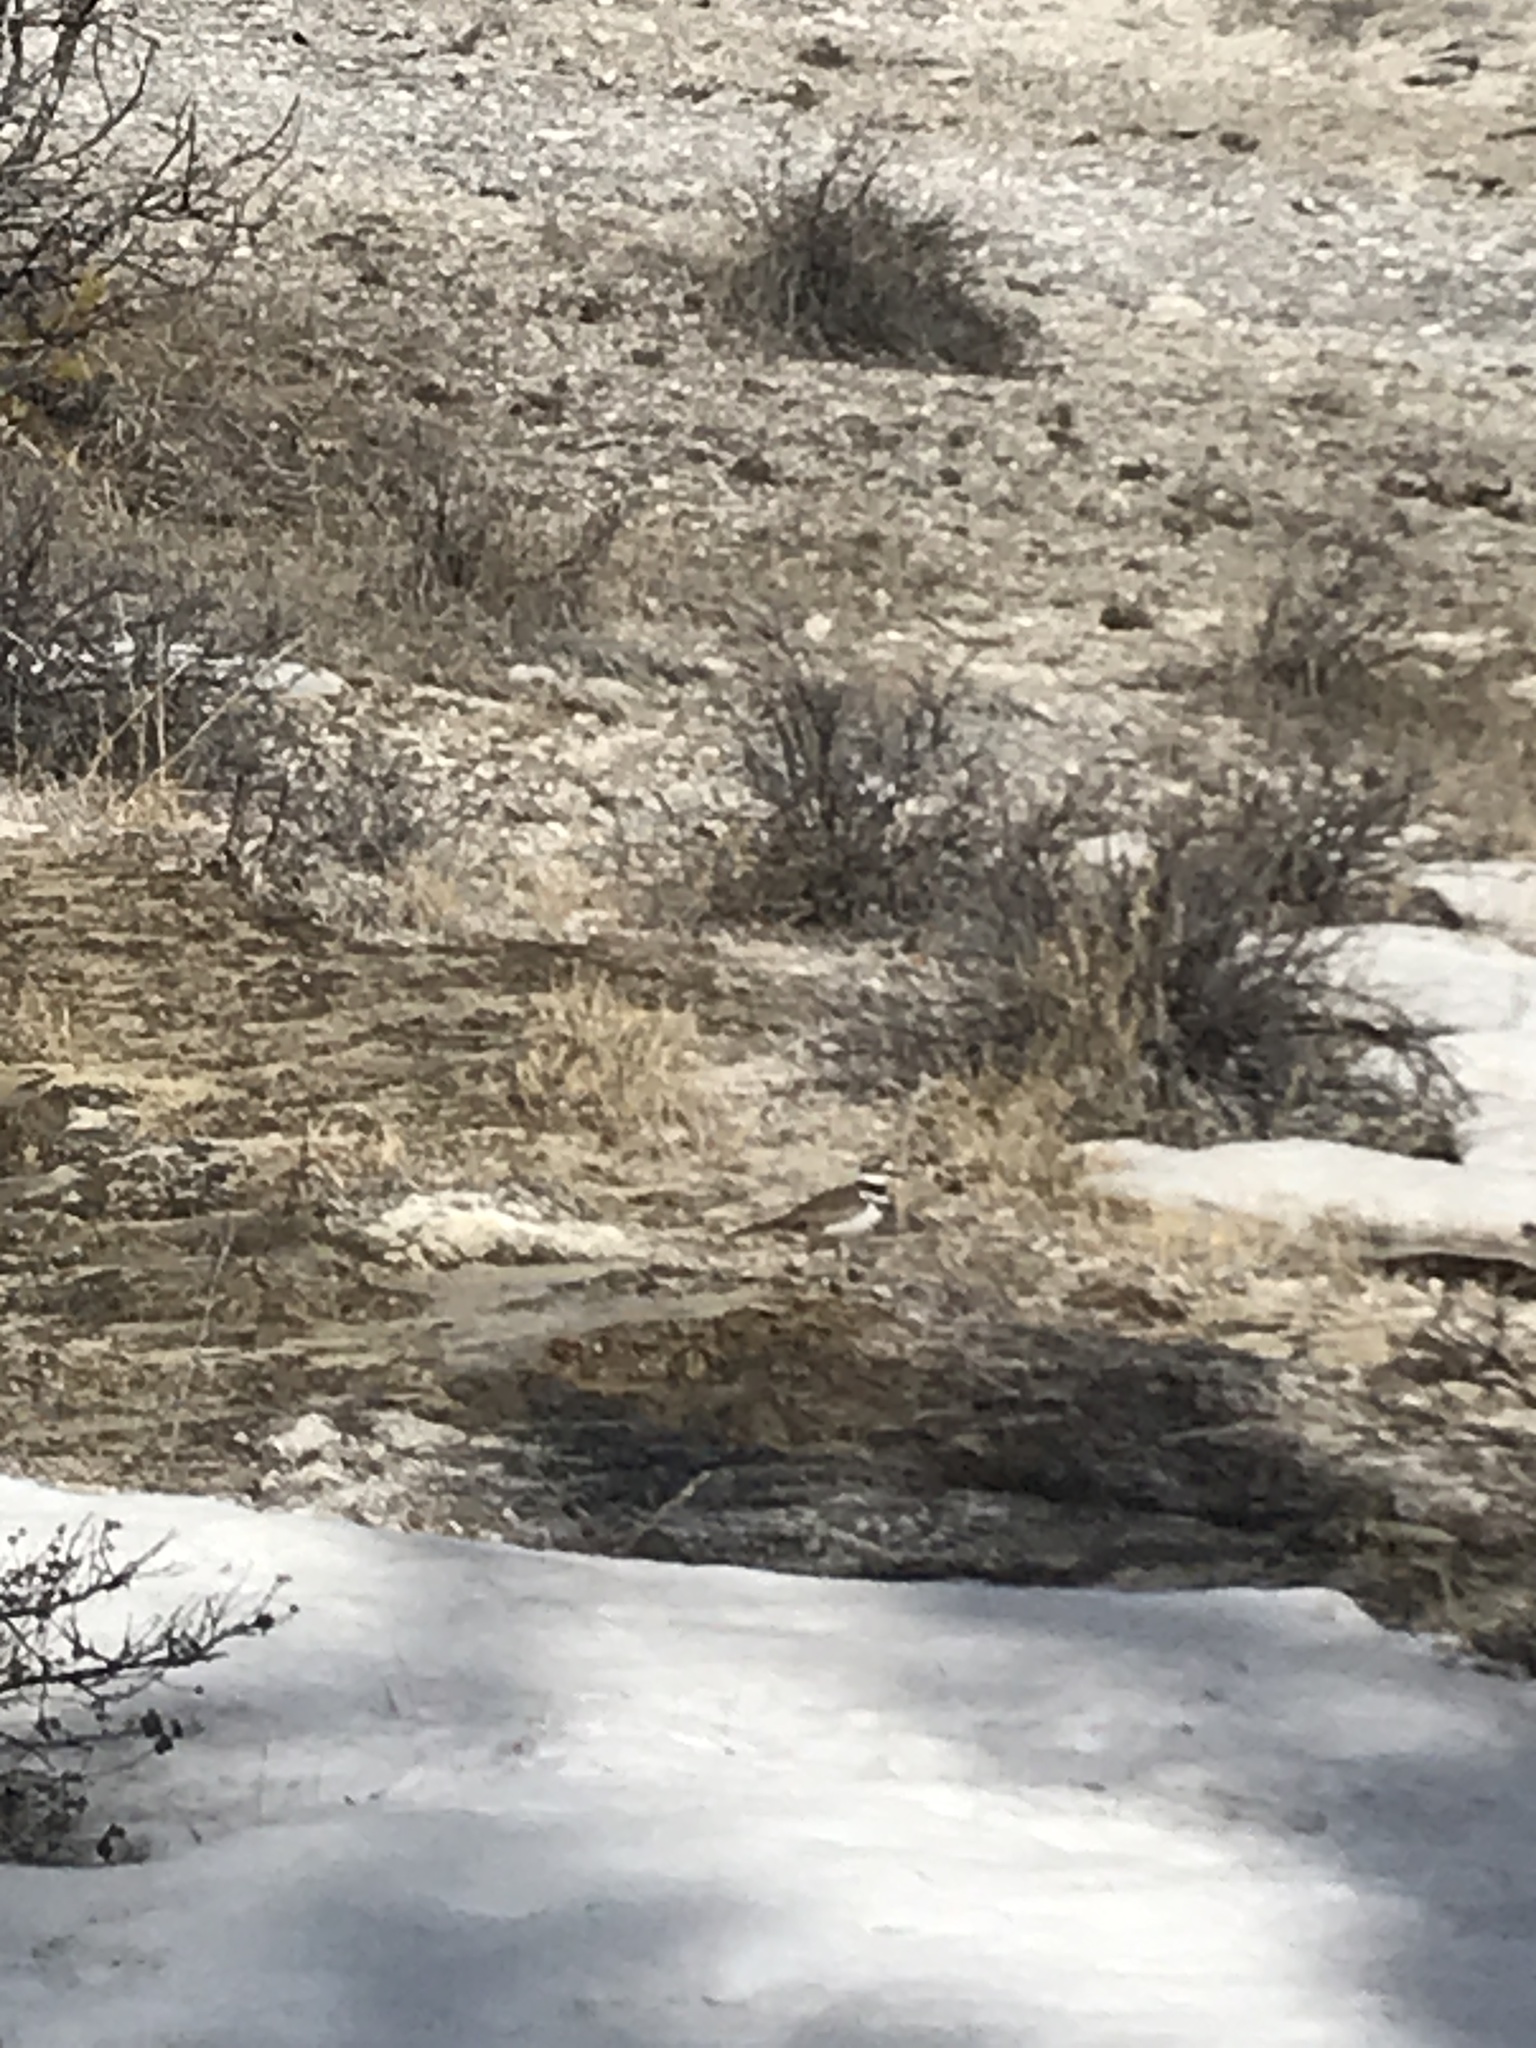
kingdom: Animalia
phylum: Chordata
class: Aves
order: Charadriiformes
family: Charadriidae
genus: Charadrius
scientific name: Charadrius vociferus
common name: Killdeer
